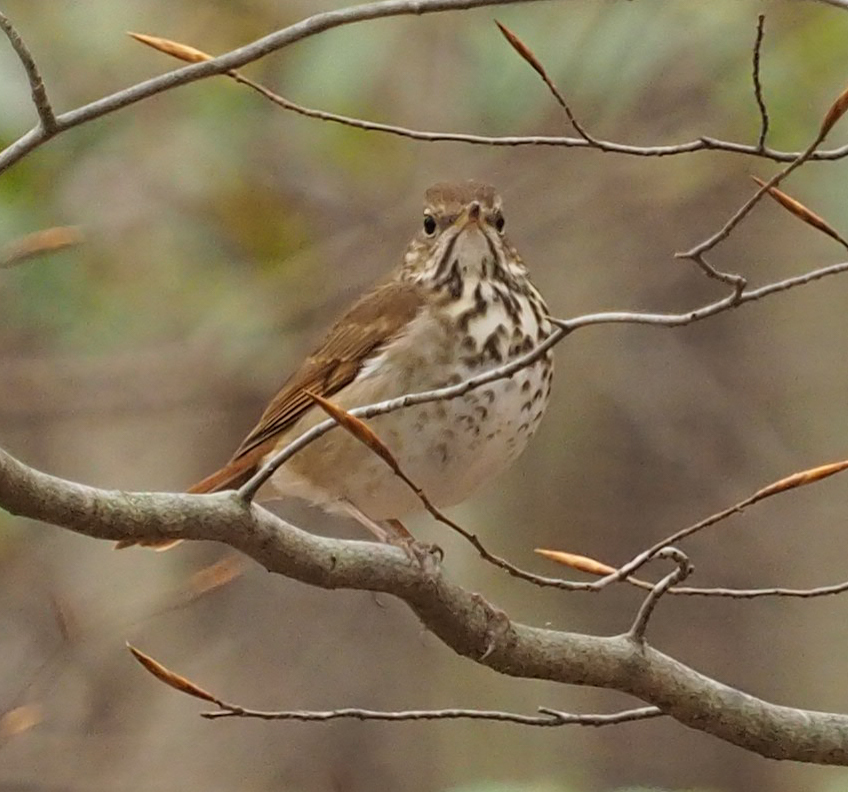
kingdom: Animalia
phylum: Chordata
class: Aves
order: Passeriformes
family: Turdidae
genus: Catharus
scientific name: Catharus guttatus
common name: Hermit thrush
